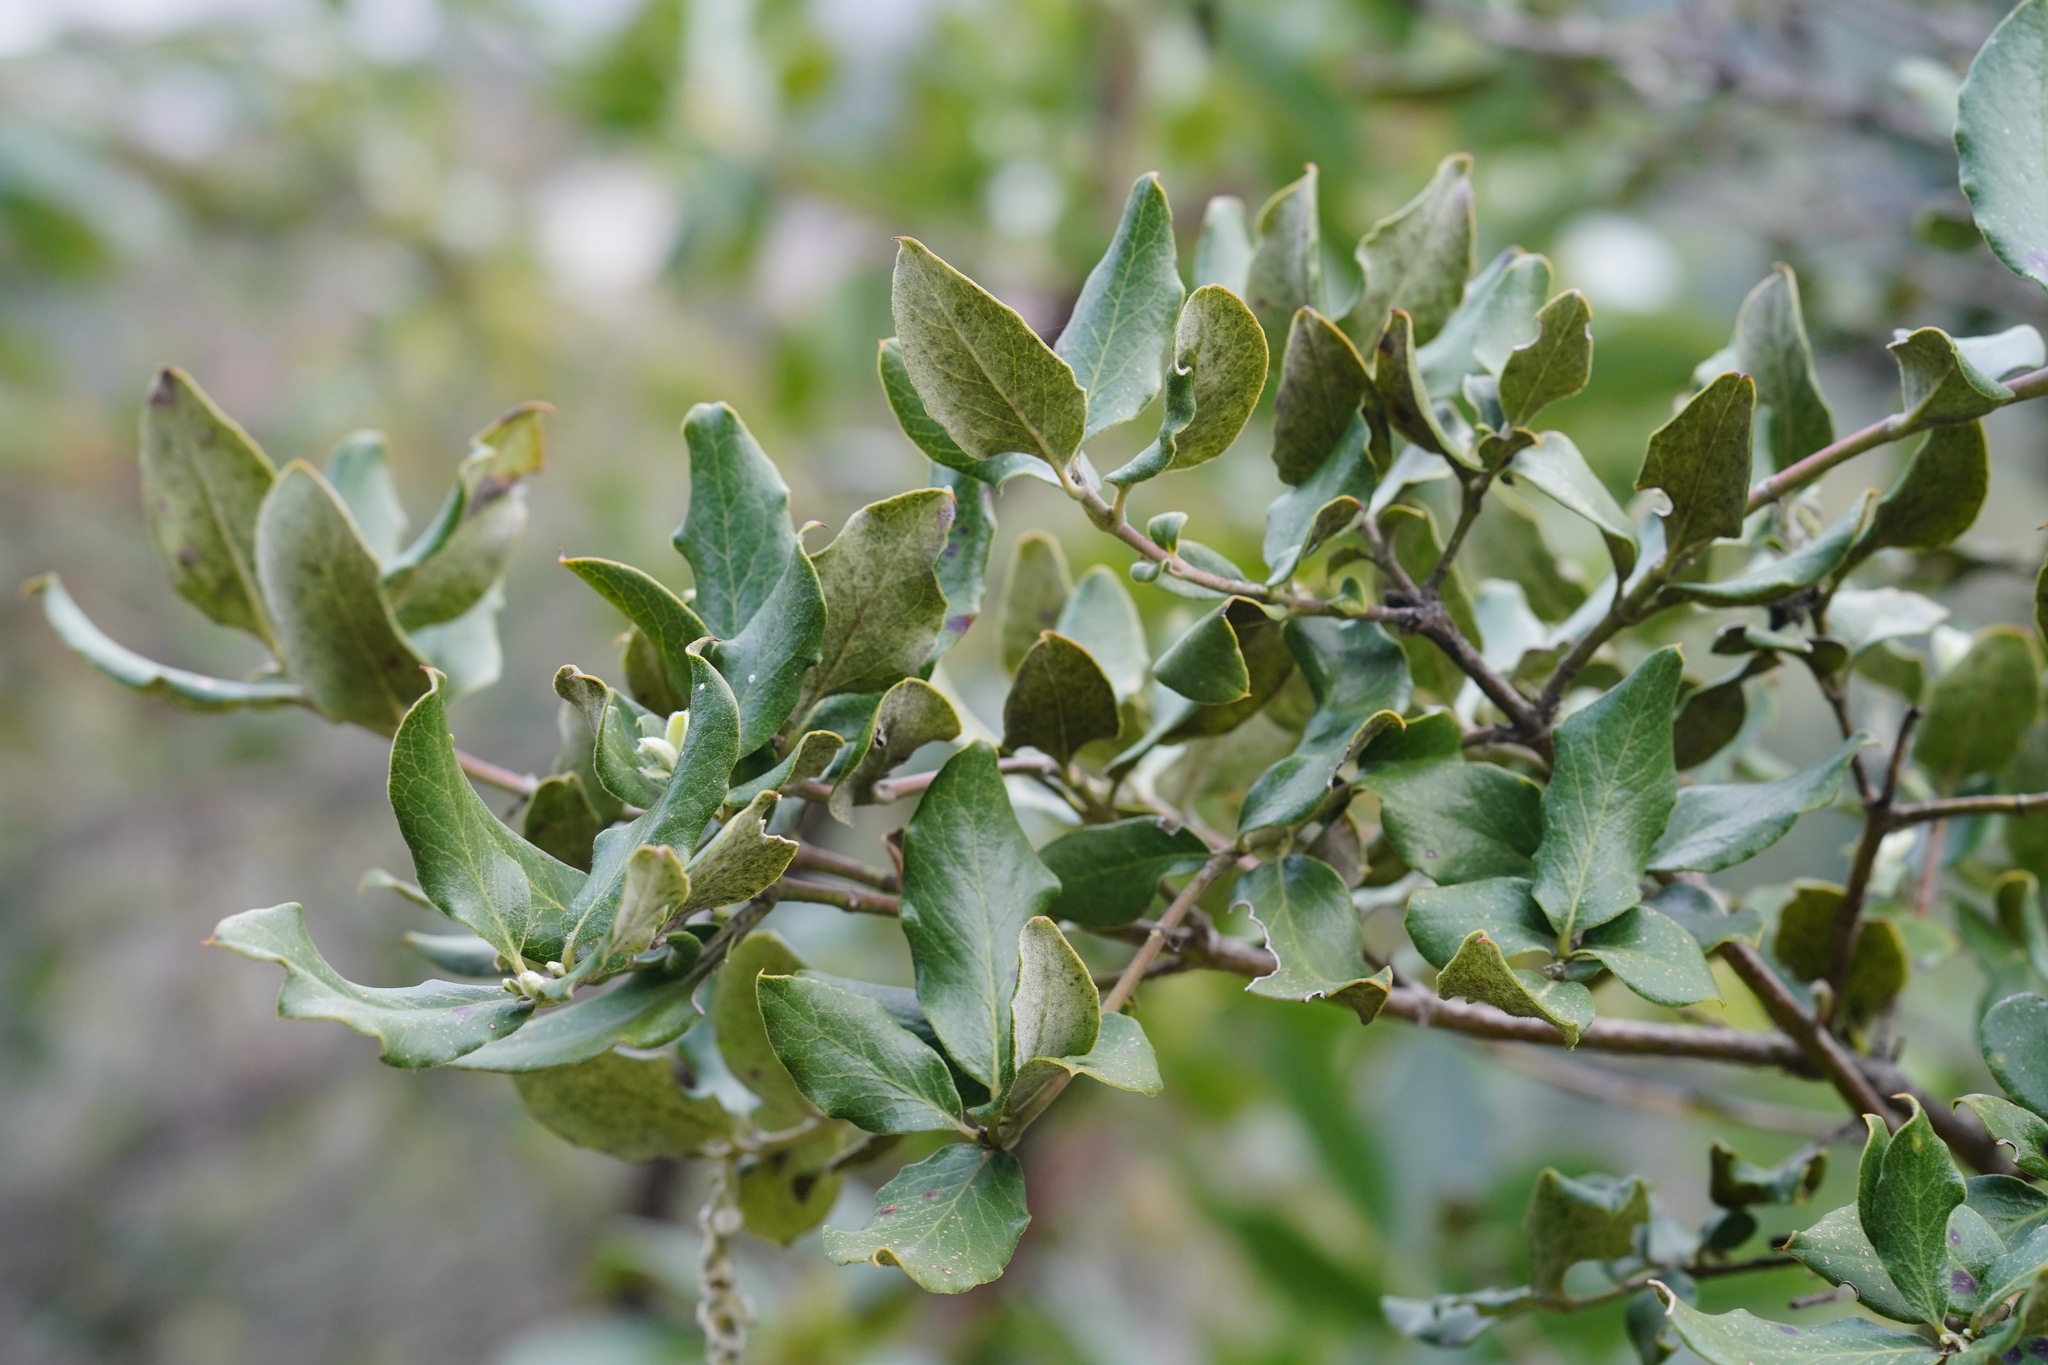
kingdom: Plantae
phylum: Tracheophyta
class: Magnoliopsida
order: Garryales
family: Garryaceae
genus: Garrya
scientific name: Garrya elliptica
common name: Silk-tassel
